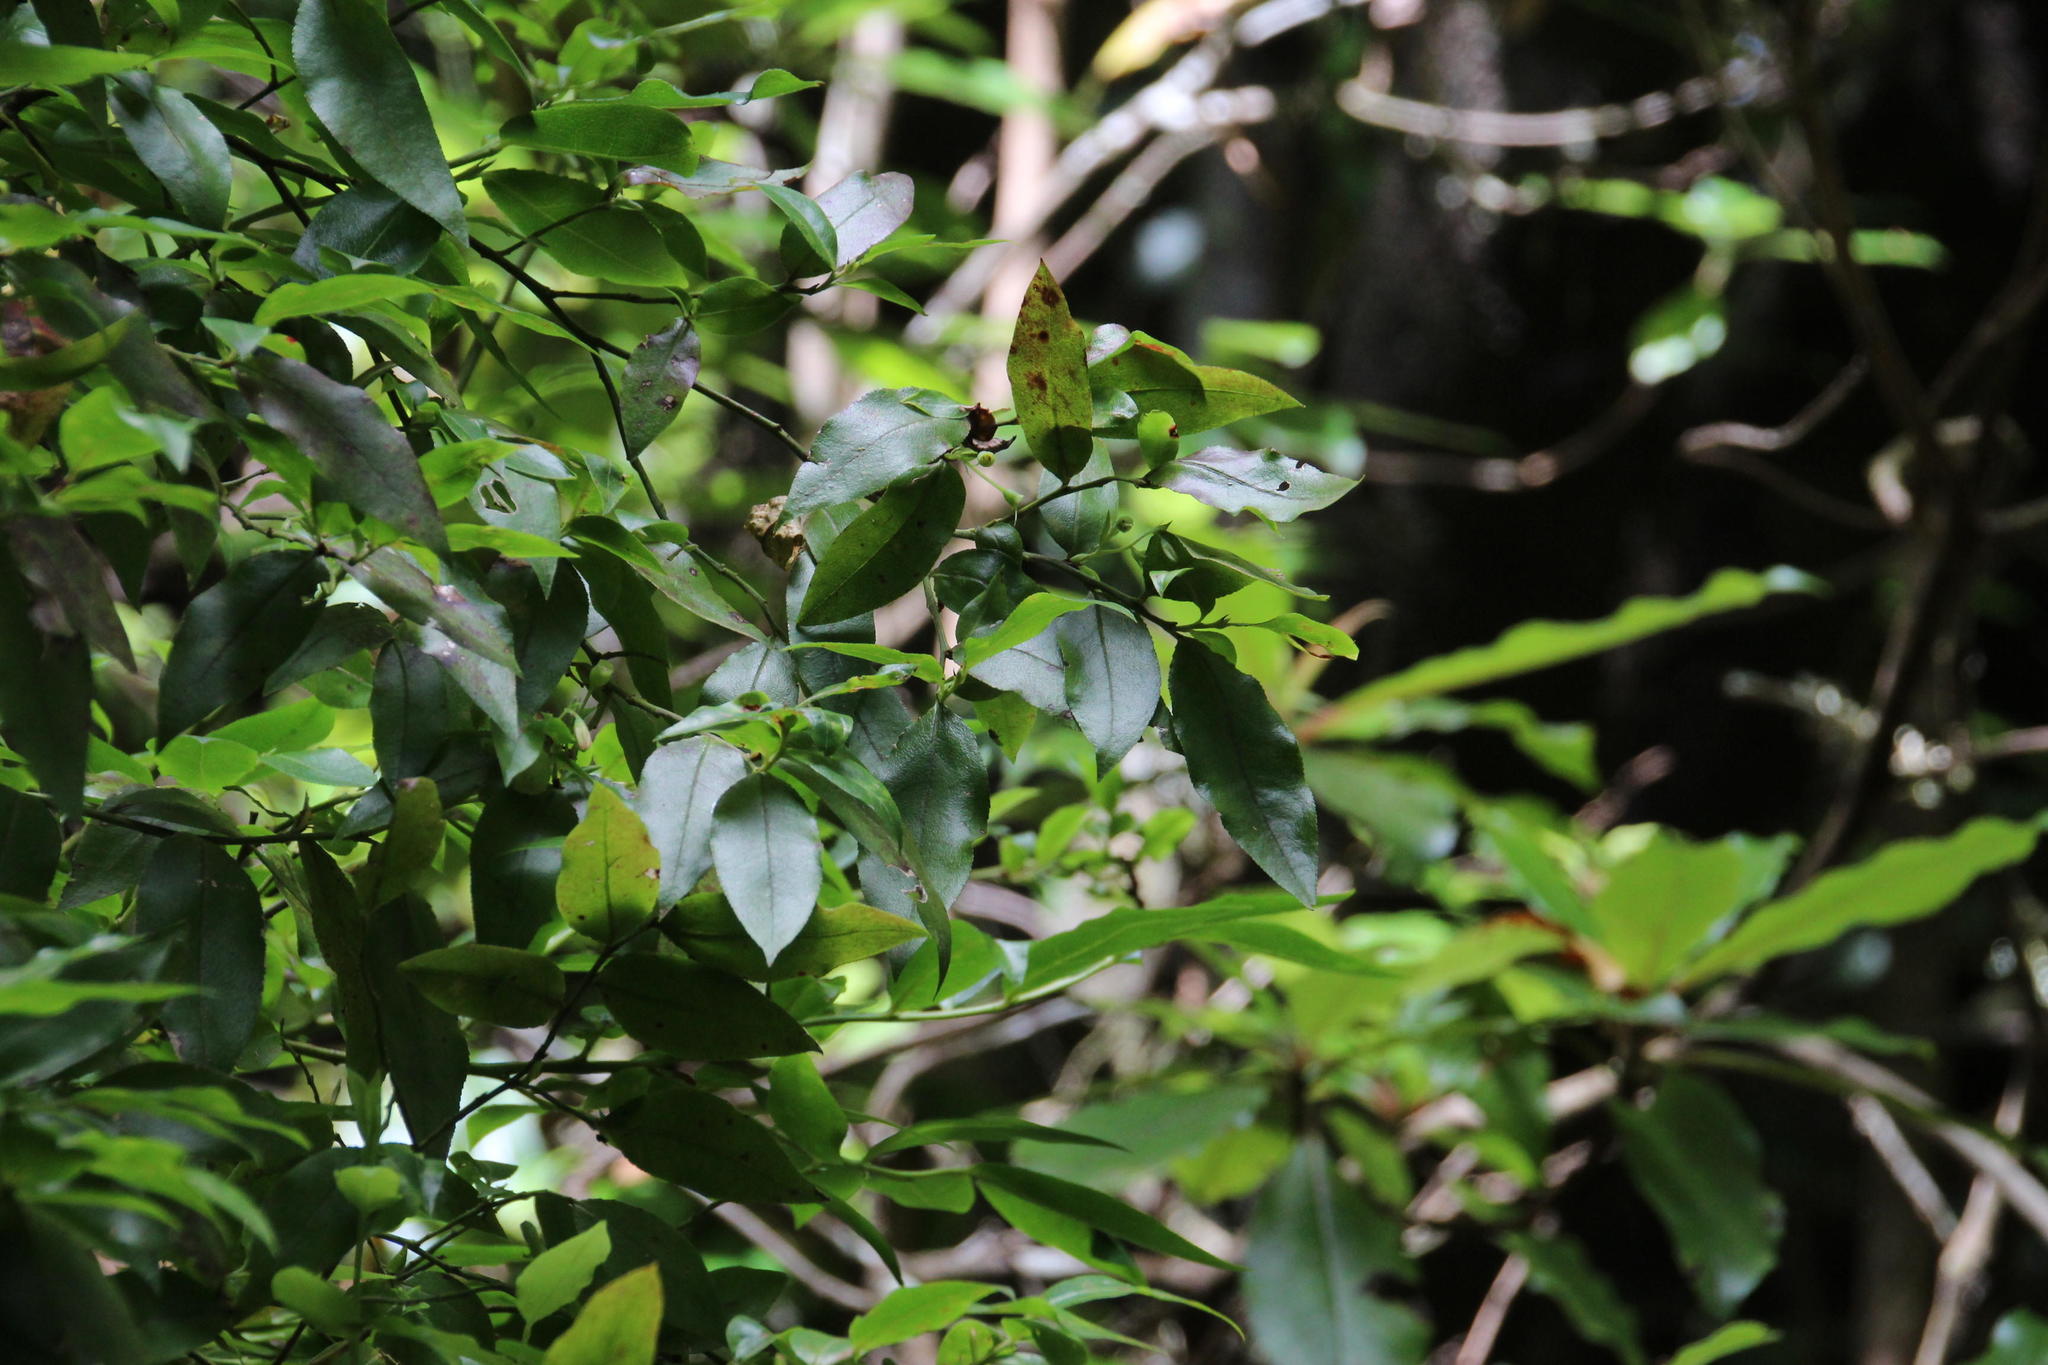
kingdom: Plantae
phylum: Tracheophyta
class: Magnoliopsida
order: Ericales
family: Ericaceae
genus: Vaccinium
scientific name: Vaccinium padifolium
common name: Madeiran blueberry
